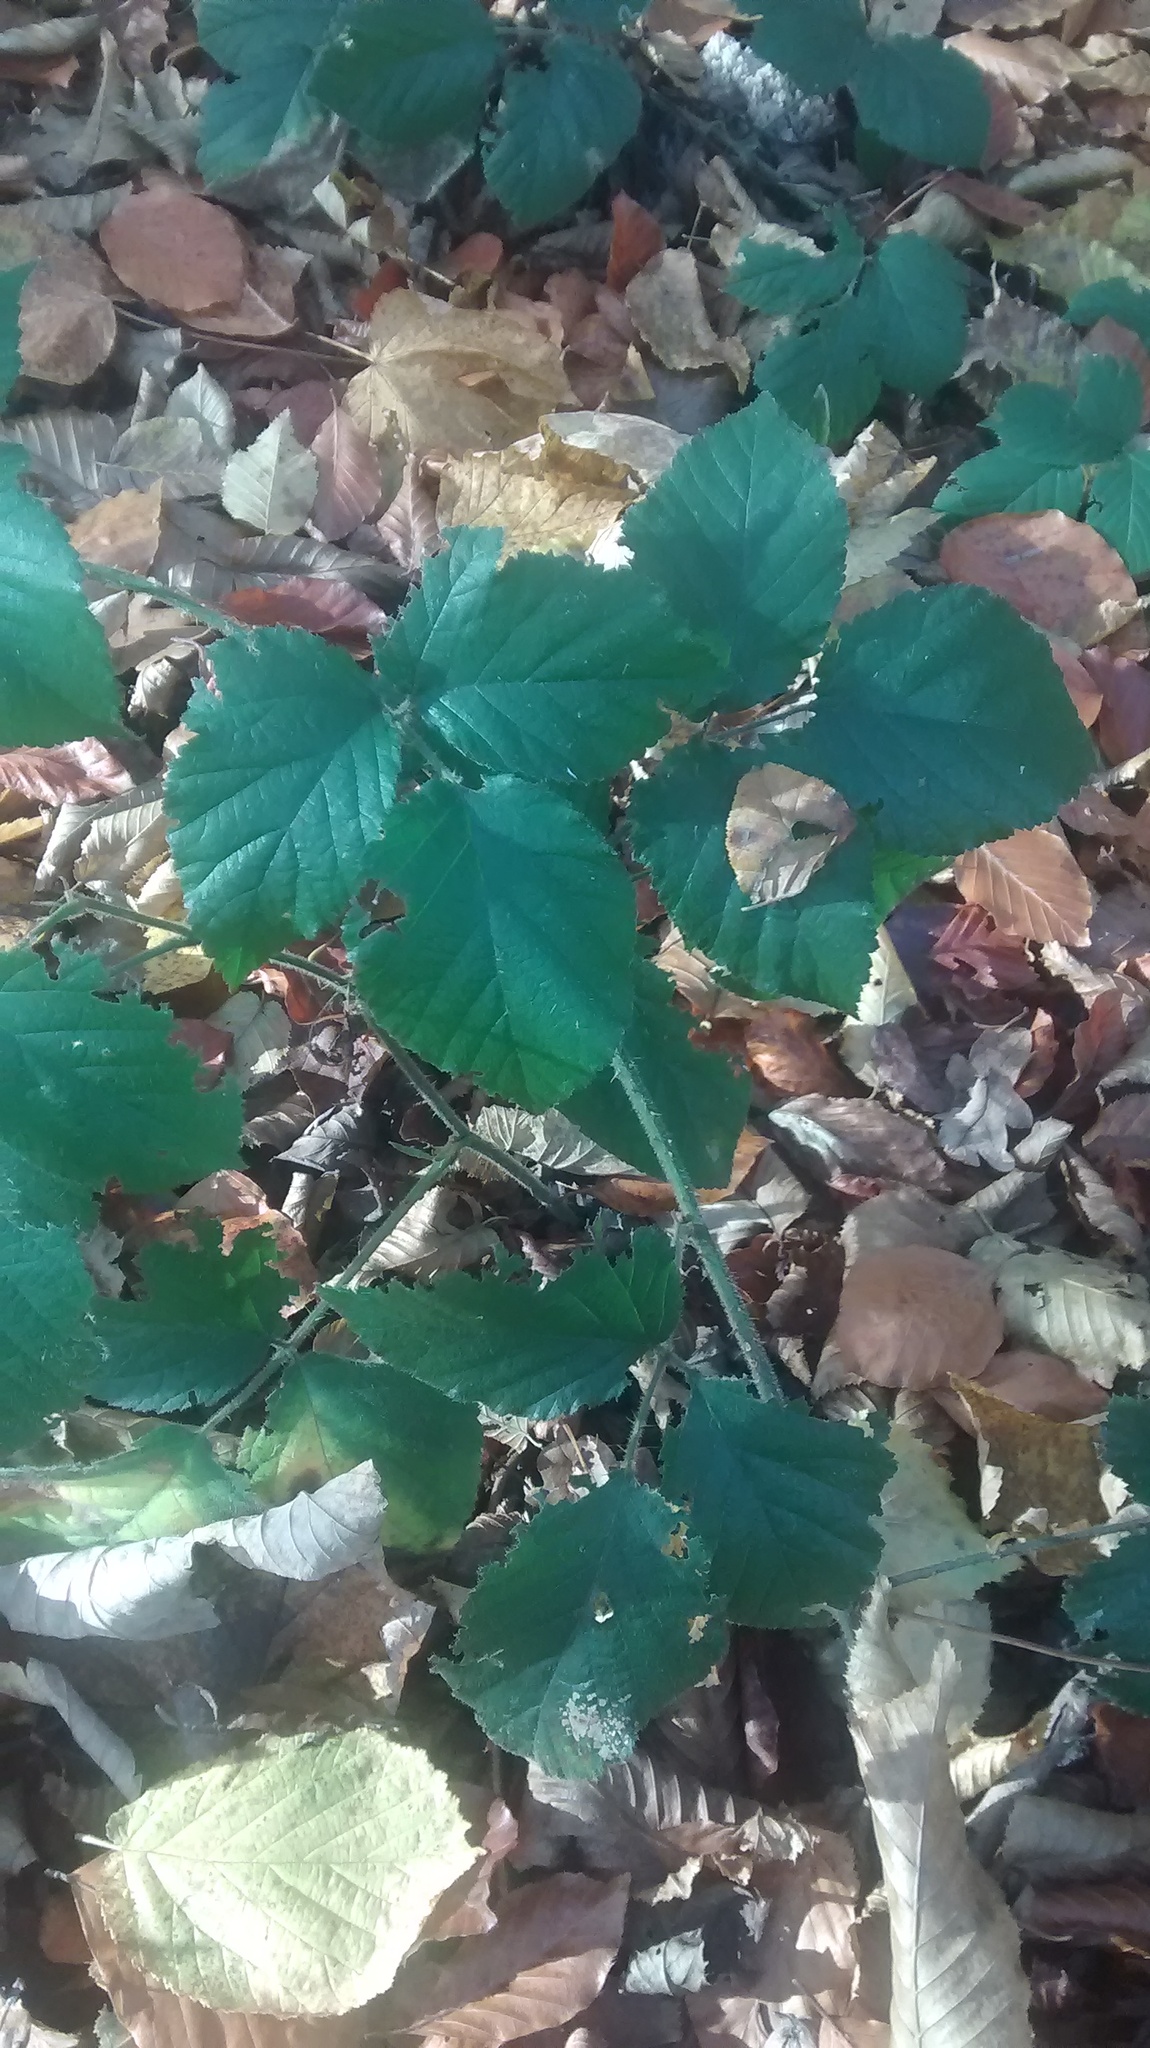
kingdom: Plantae
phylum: Tracheophyta
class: Magnoliopsida
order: Rosales
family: Rosaceae
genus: Rubus
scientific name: Rubus
